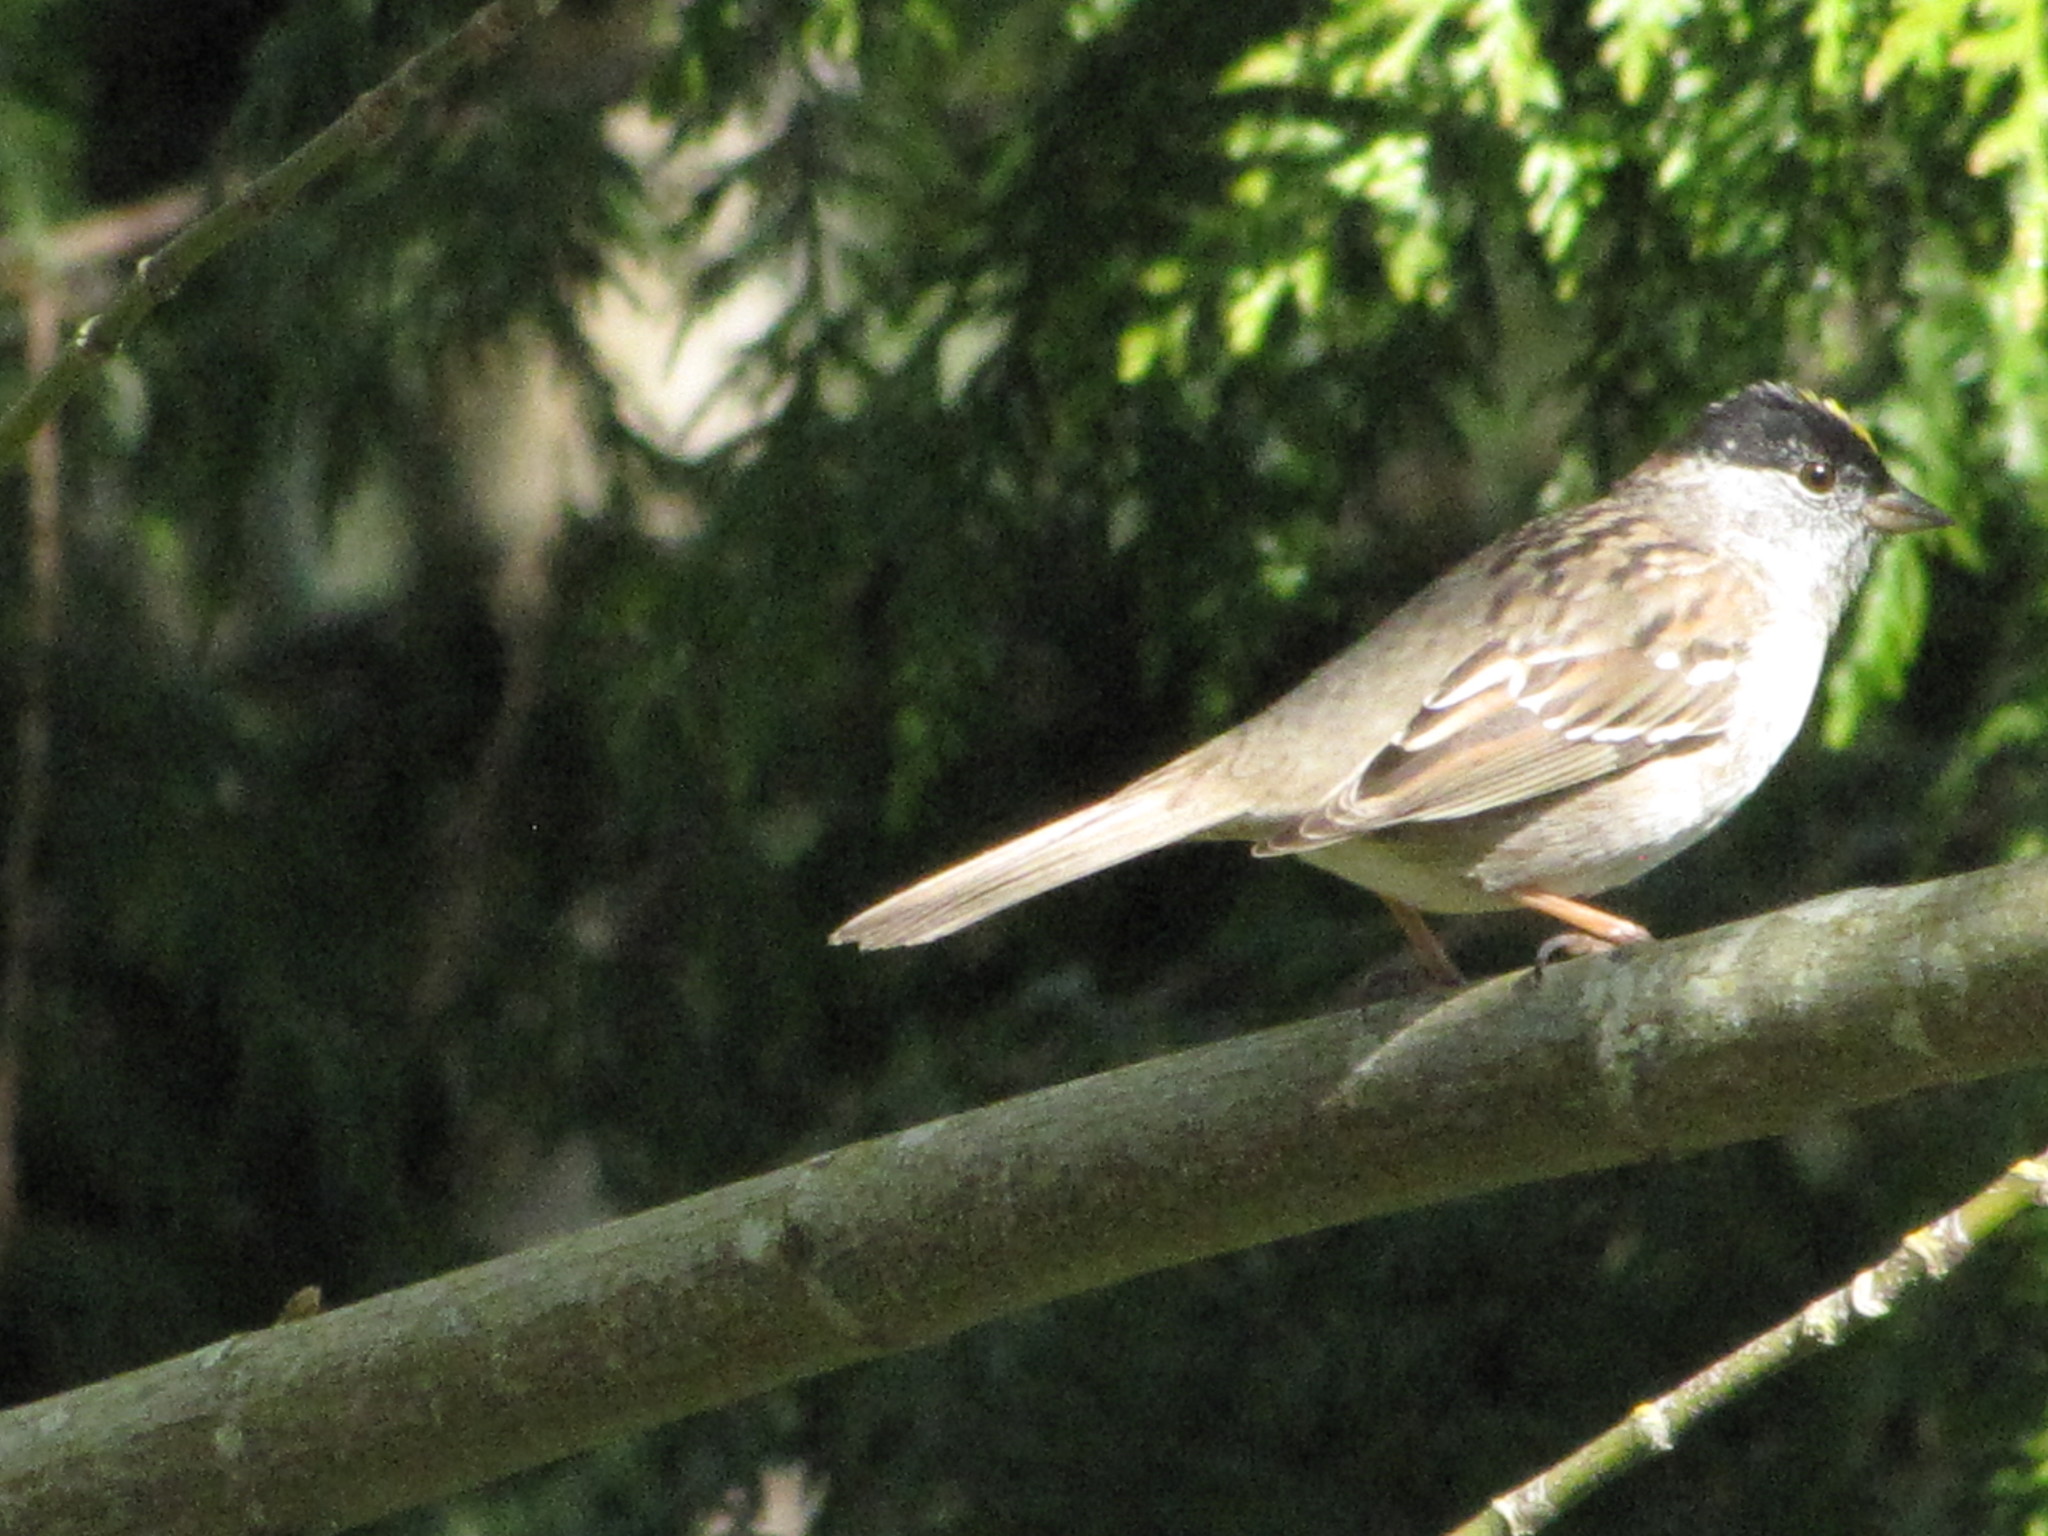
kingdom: Animalia
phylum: Chordata
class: Aves
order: Passeriformes
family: Passerellidae
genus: Zonotrichia
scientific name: Zonotrichia atricapilla
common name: Golden-crowned sparrow
